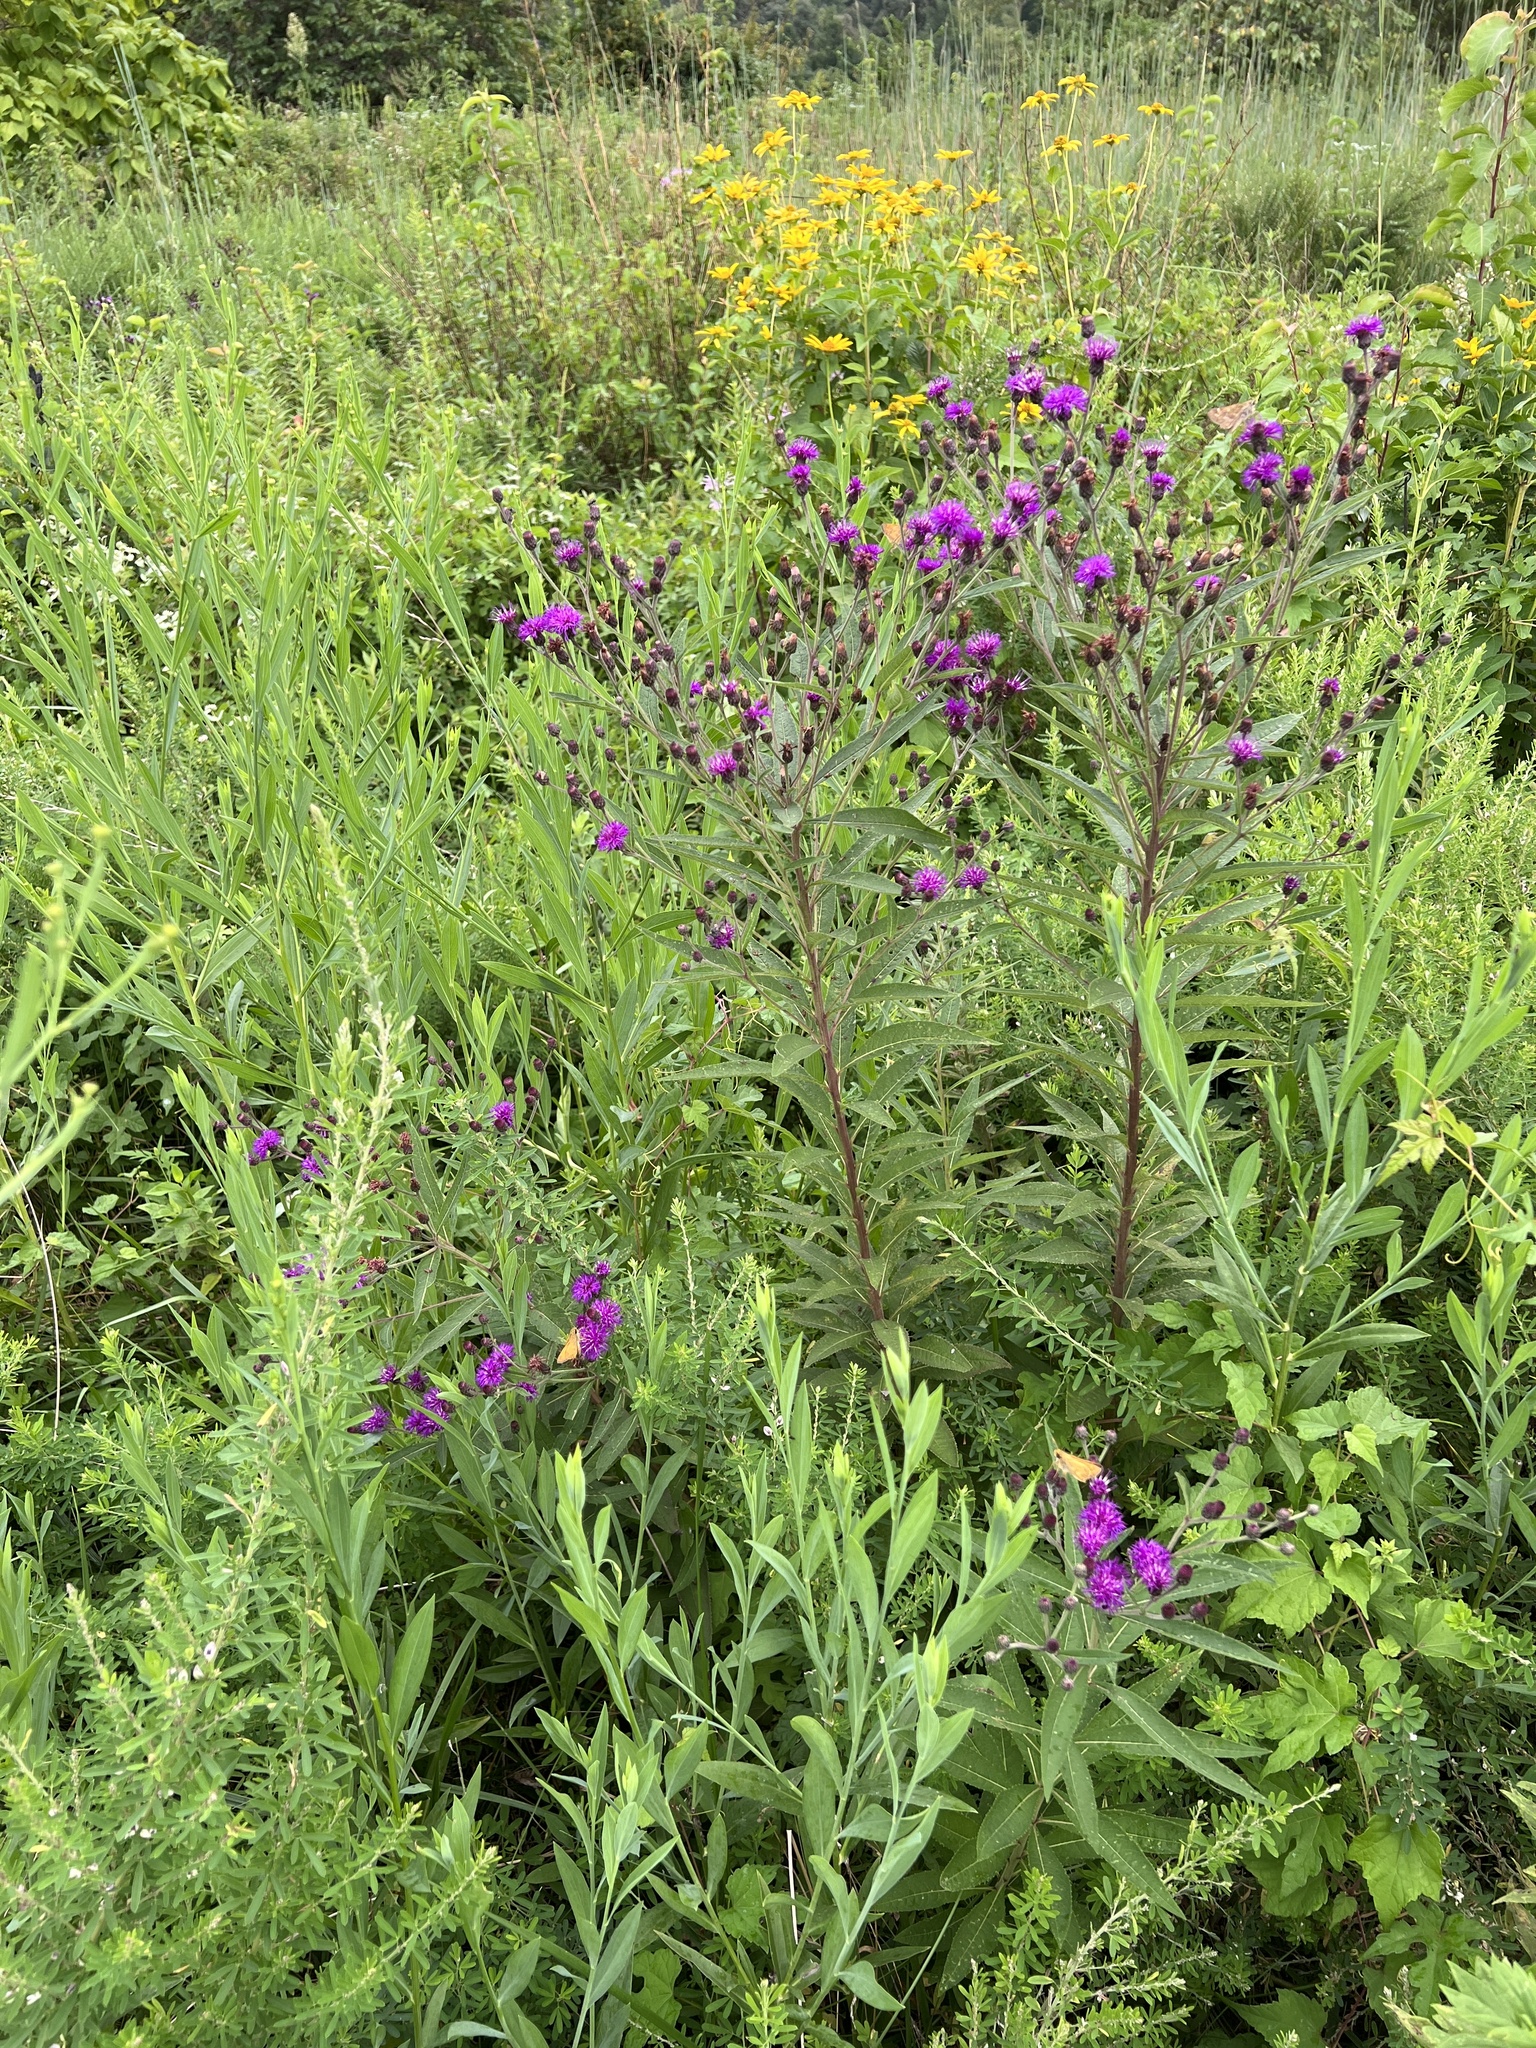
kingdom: Plantae
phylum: Tracheophyta
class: Magnoliopsida
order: Asterales
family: Asteraceae
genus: Vernonia
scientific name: Vernonia noveboracensis
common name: New york ironweed
